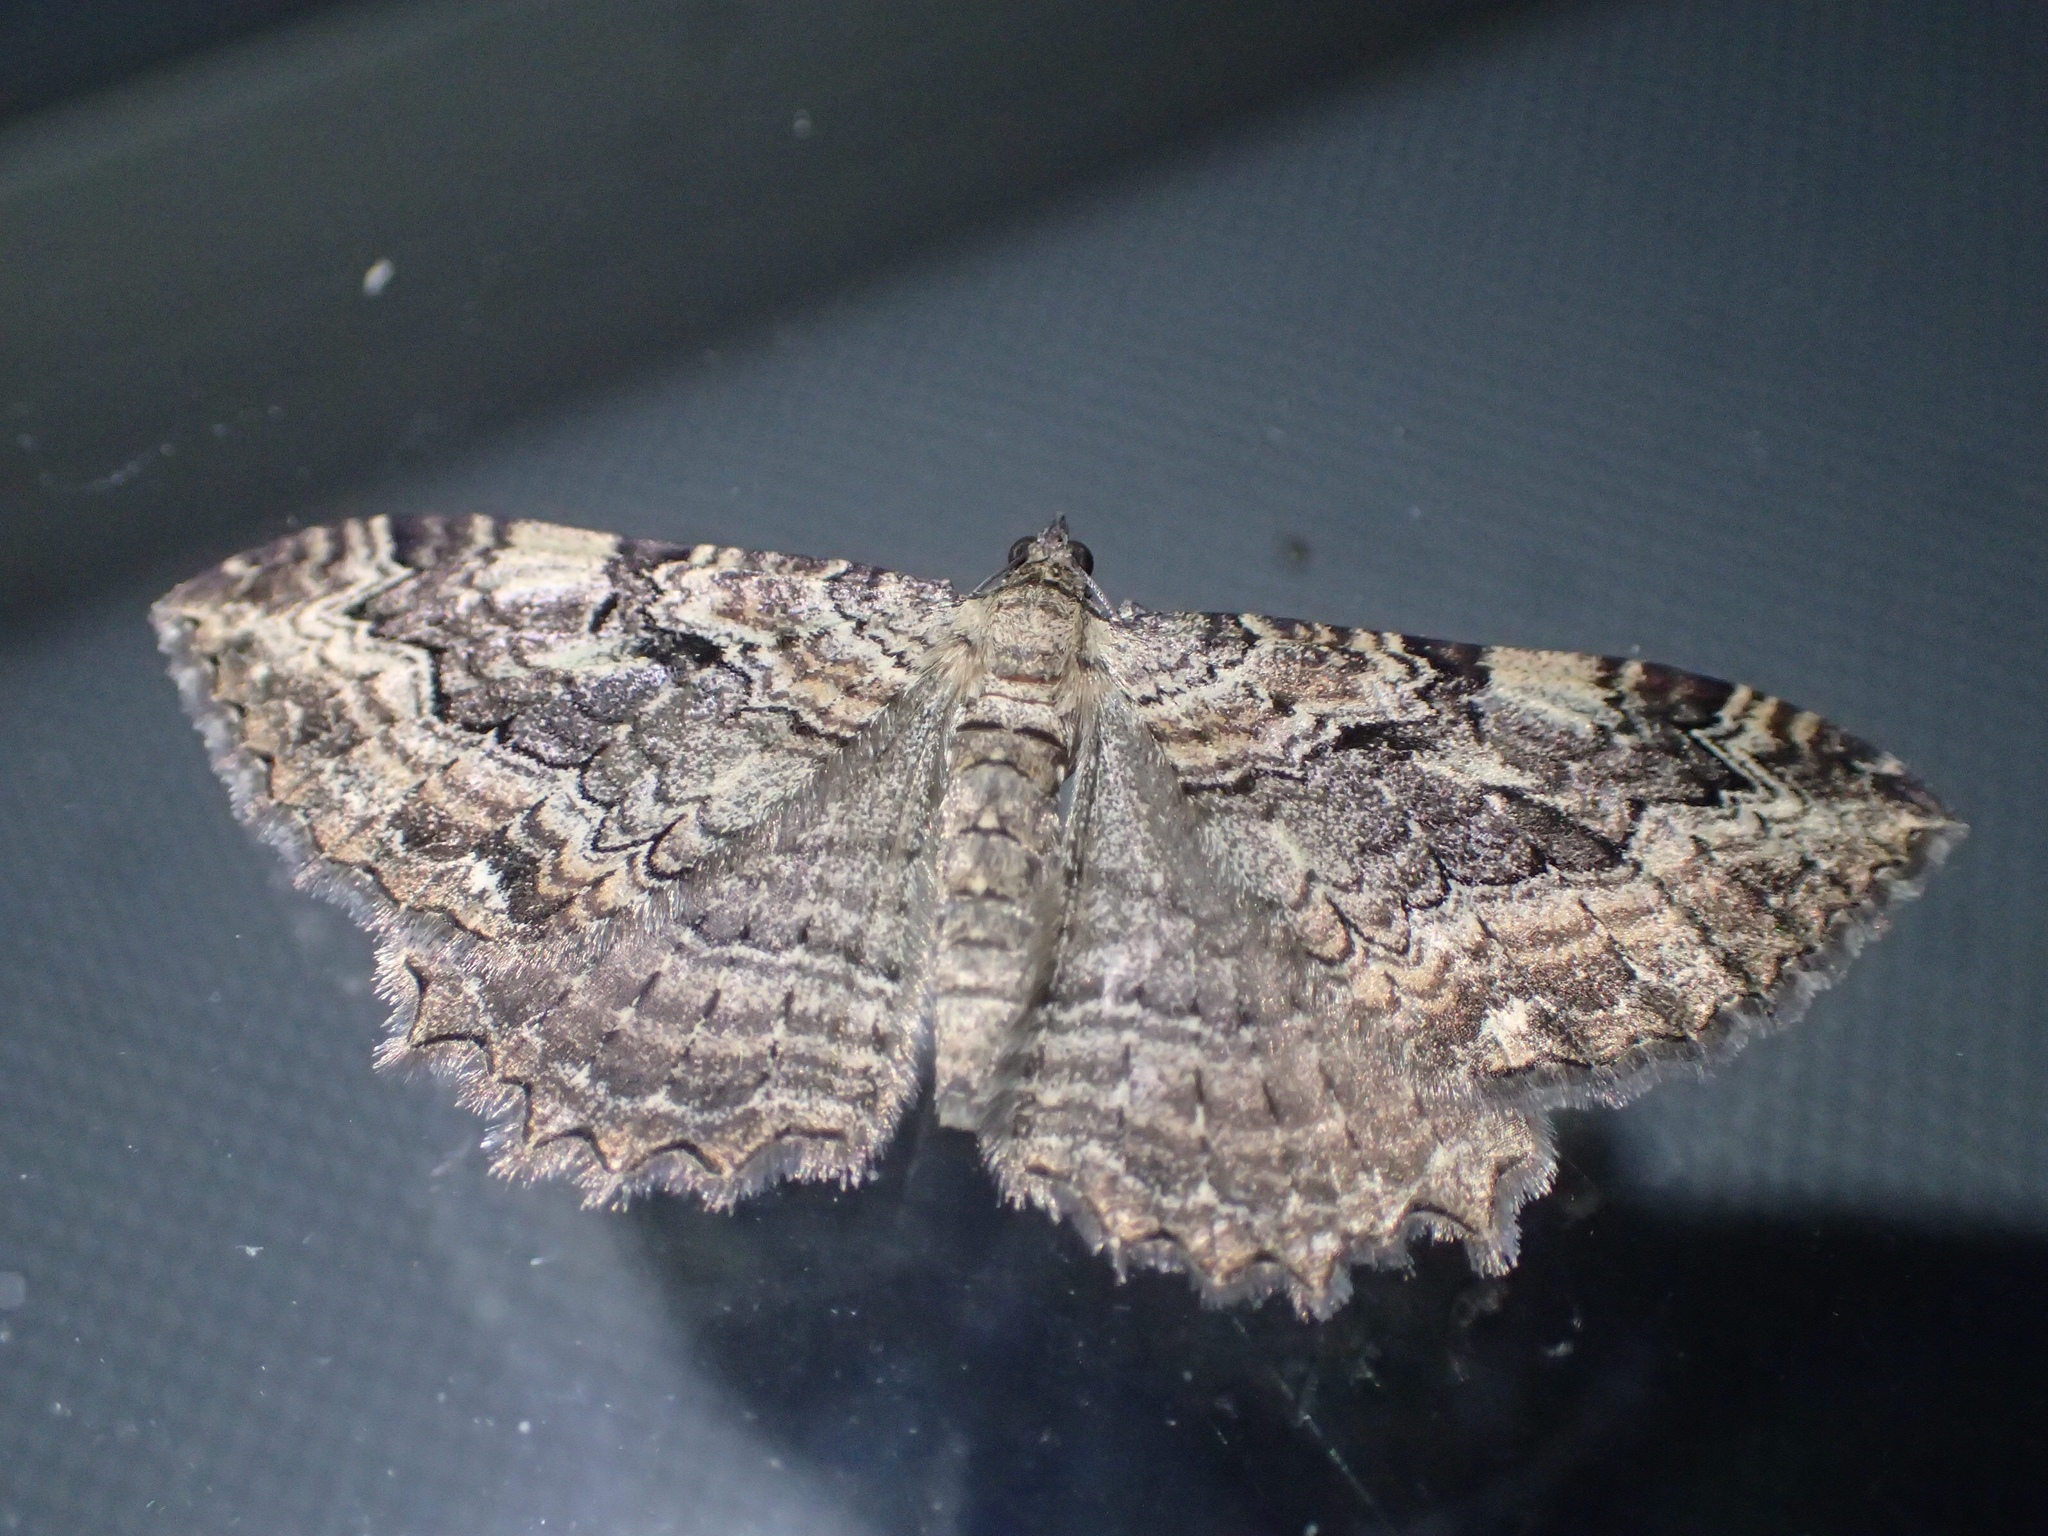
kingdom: Animalia
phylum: Arthropoda
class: Insecta
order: Lepidoptera
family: Geometridae
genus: Rheumaptera
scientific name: Rheumaptera
